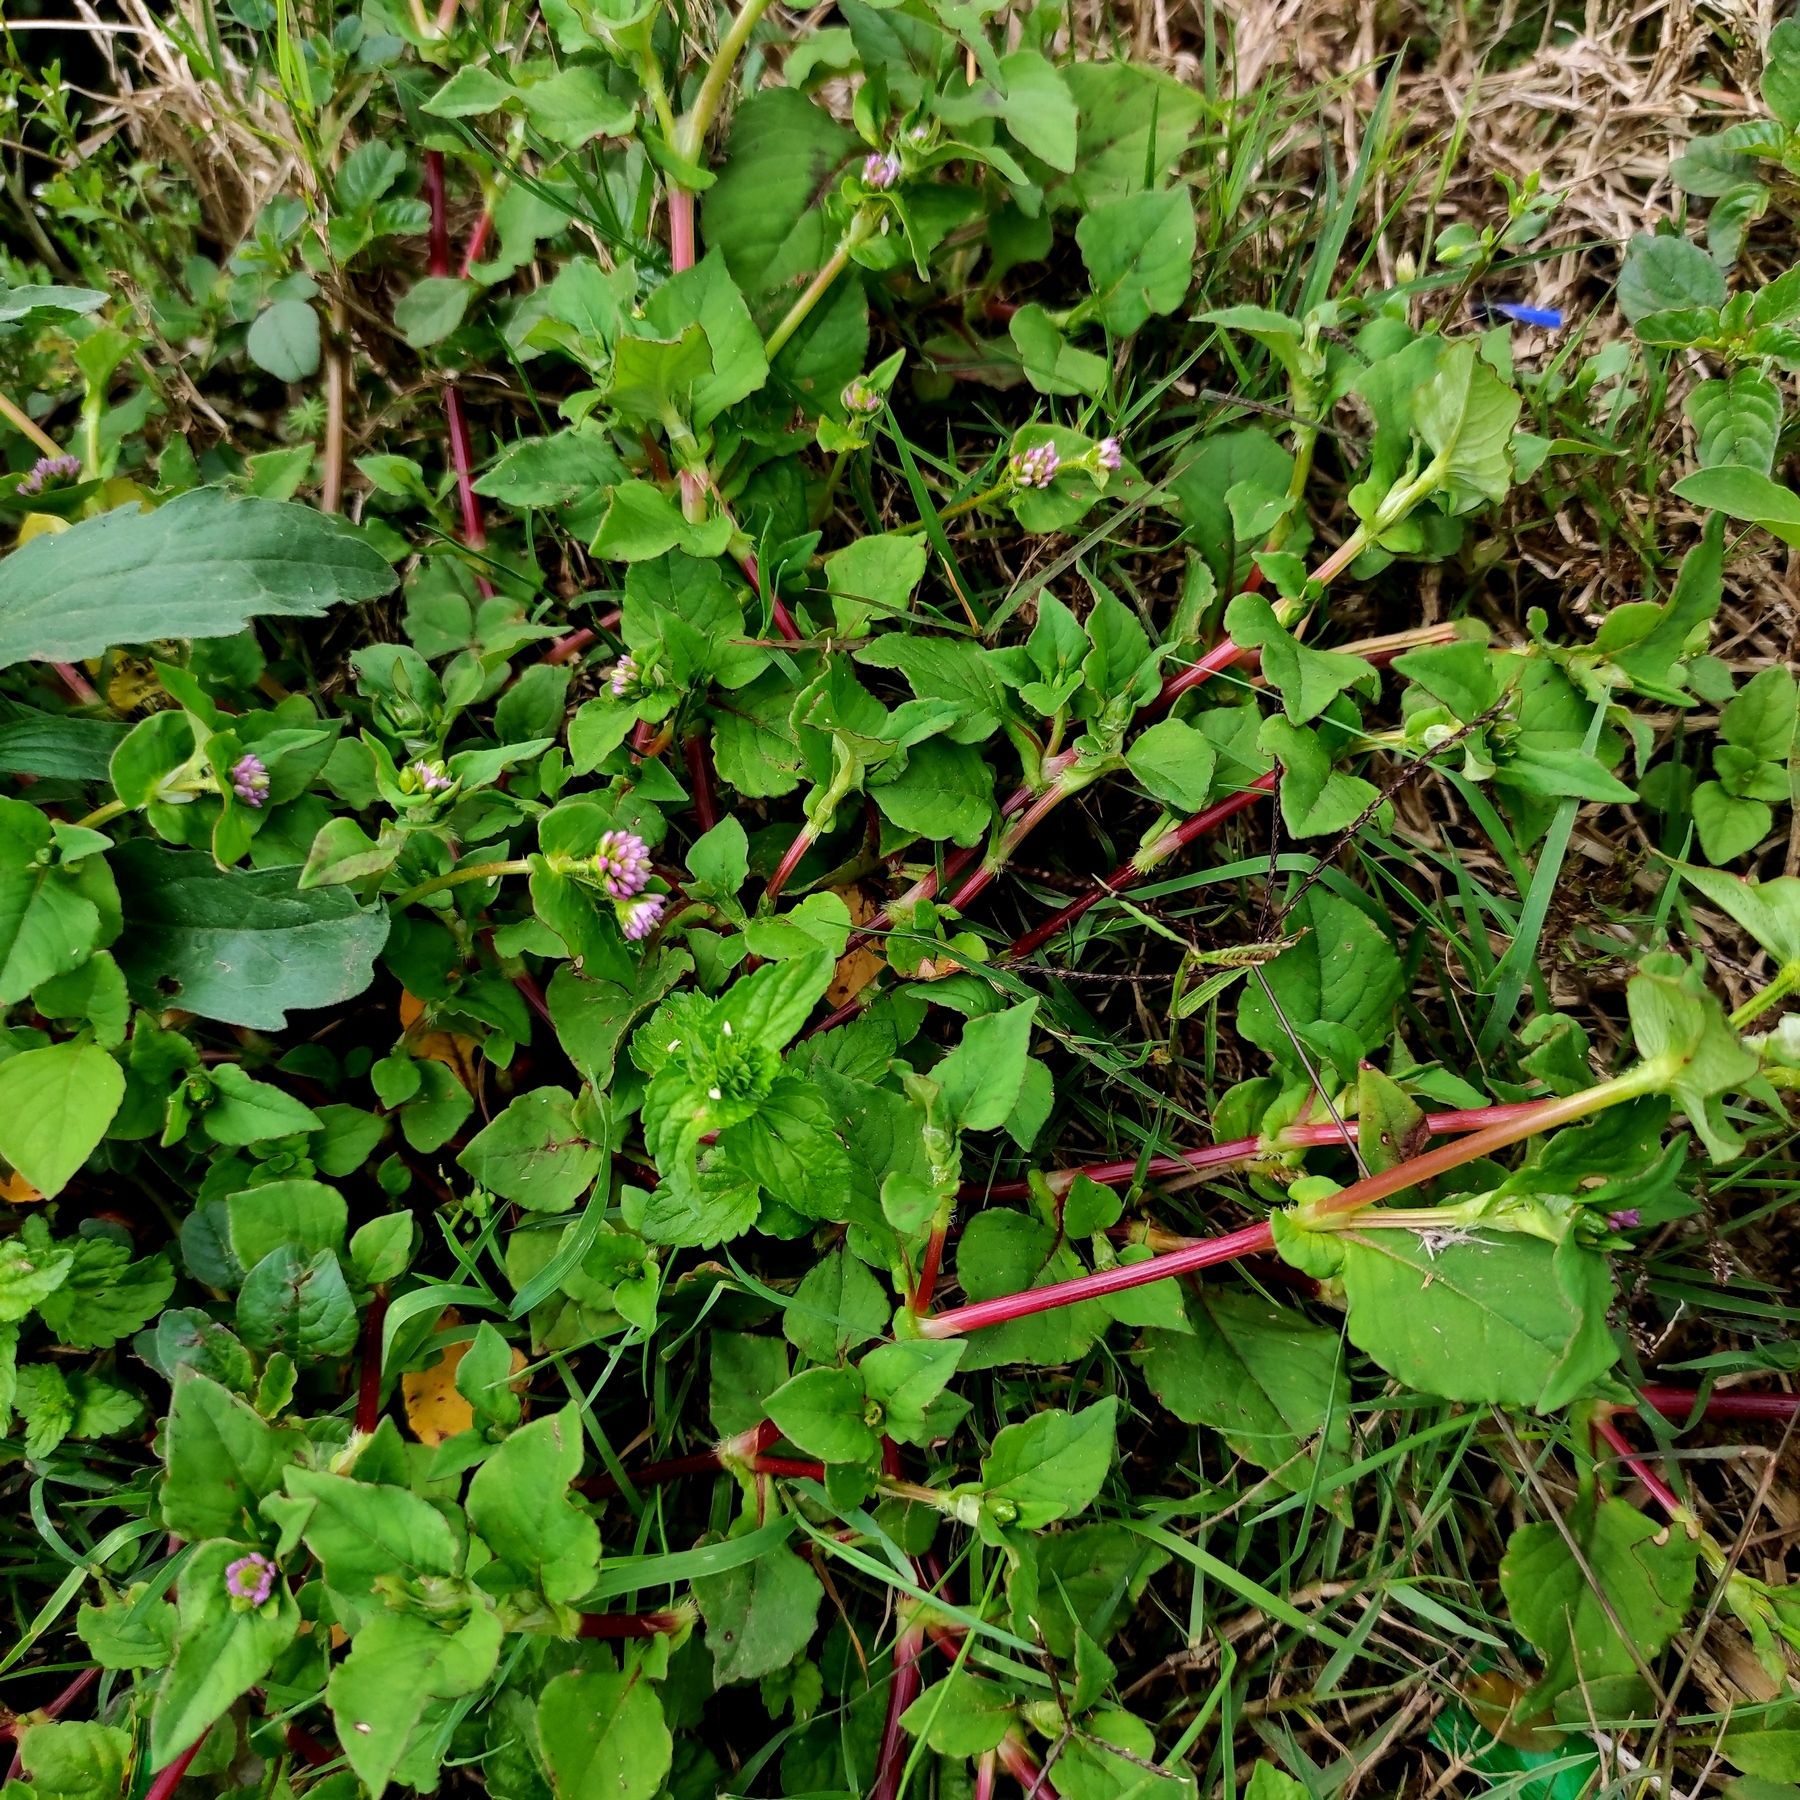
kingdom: Plantae
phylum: Tracheophyta
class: Magnoliopsida
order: Caryophyllales
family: Polygonaceae
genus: Persicaria
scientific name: Persicaria nepalensis
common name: Nepal persicaria
